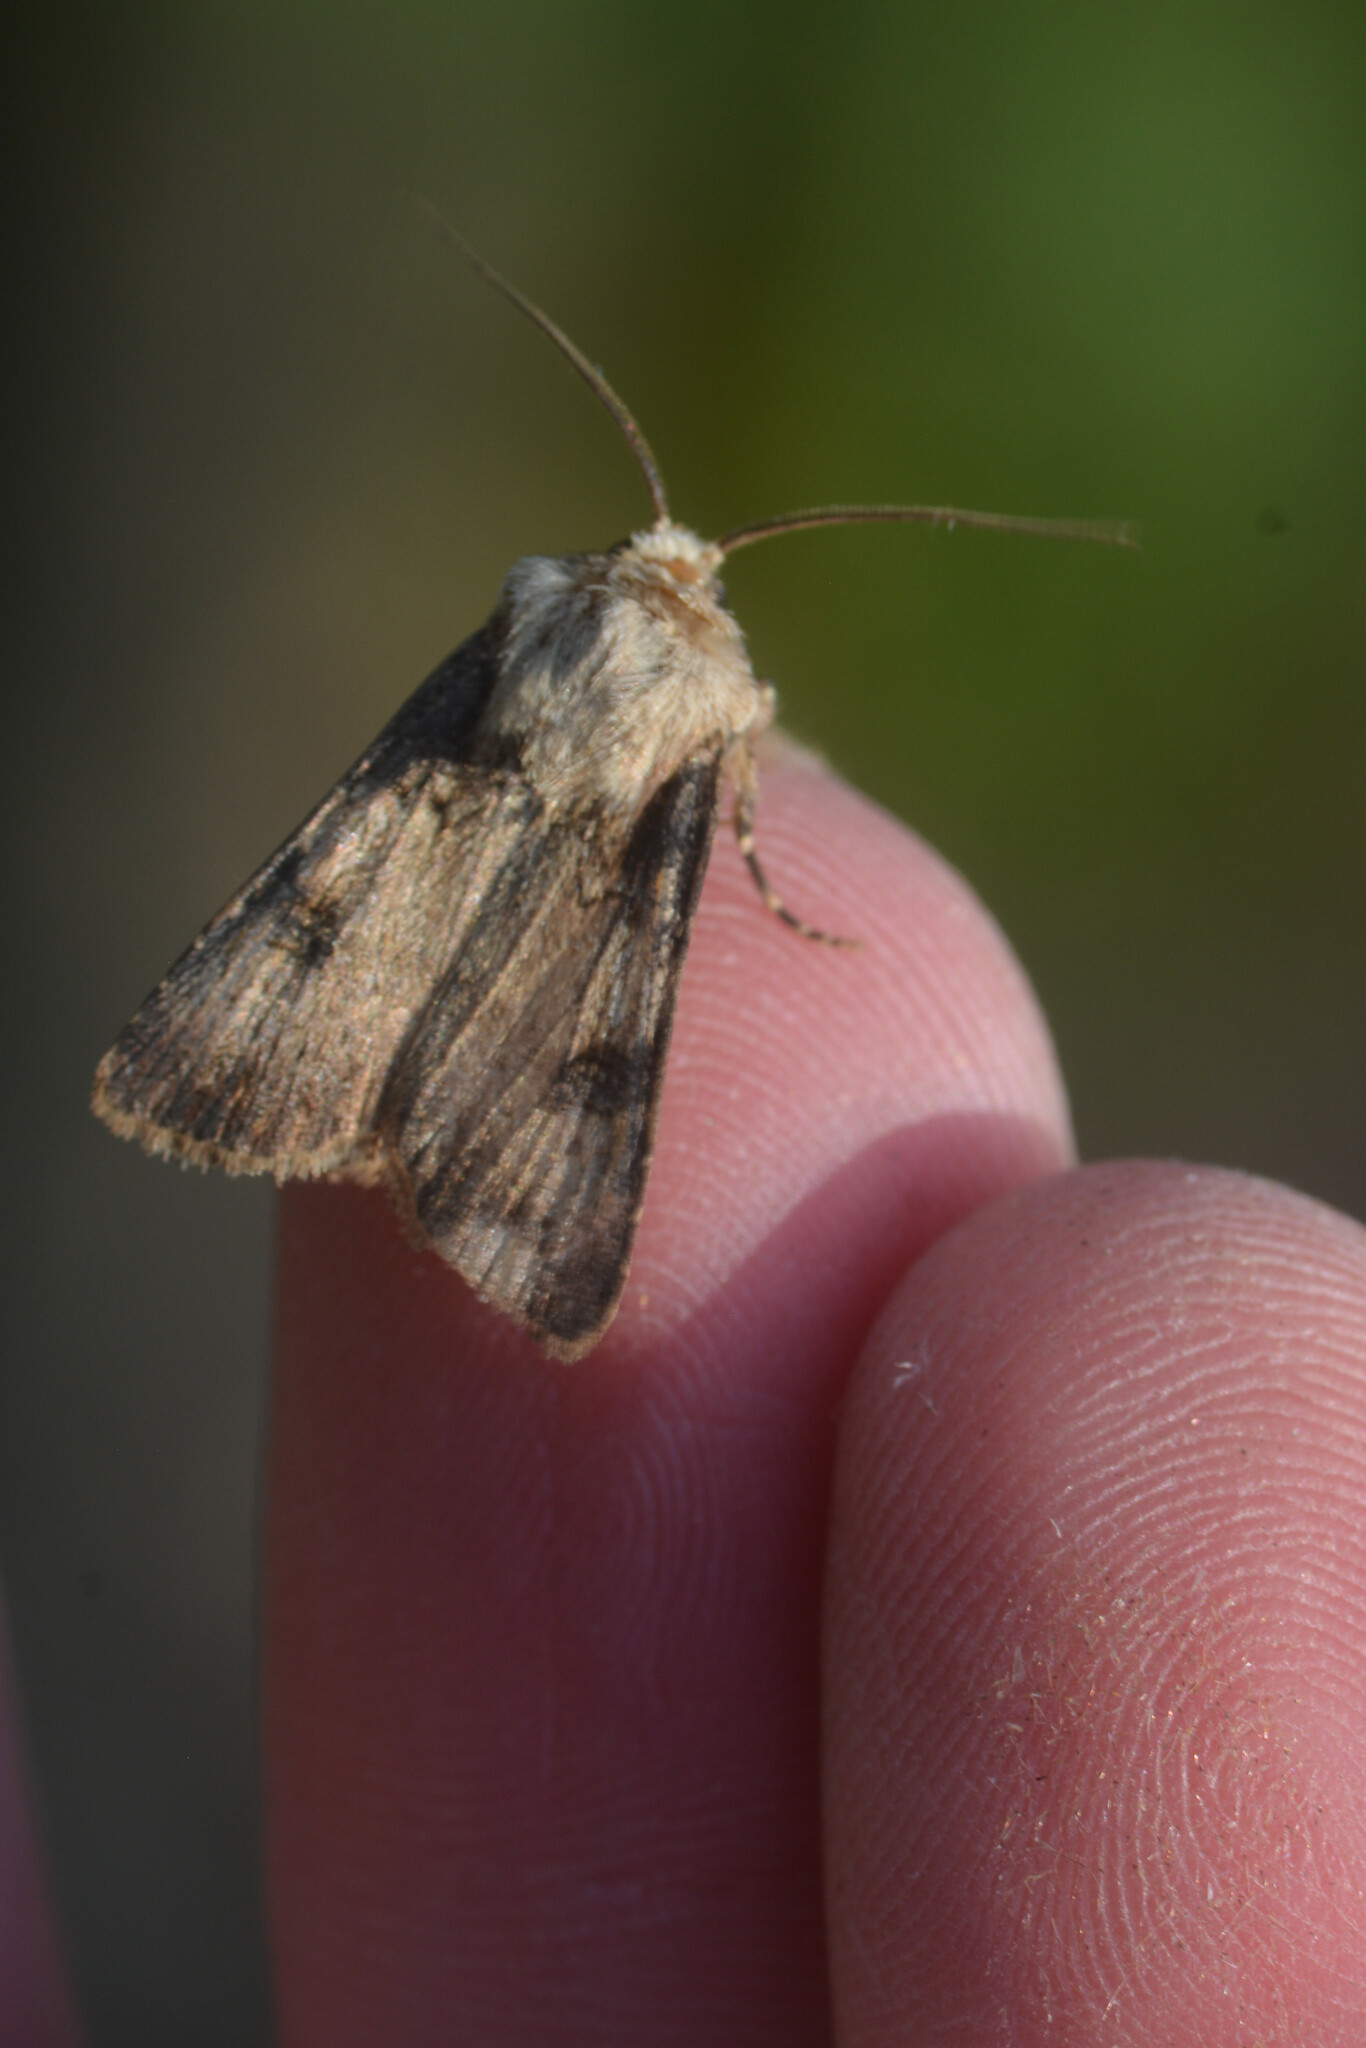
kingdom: Animalia
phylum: Arthropoda
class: Insecta
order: Lepidoptera
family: Noctuidae
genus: Agrotis
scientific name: Agrotis puta
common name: Shuttle-shaped dart
